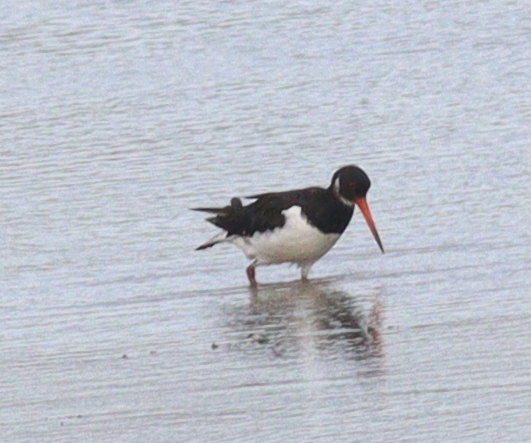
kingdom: Animalia
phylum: Chordata
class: Aves
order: Charadriiformes
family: Haematopodidae
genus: Haematopus
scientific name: Haematopus ostralegus
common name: Eurasian oystercatcher
